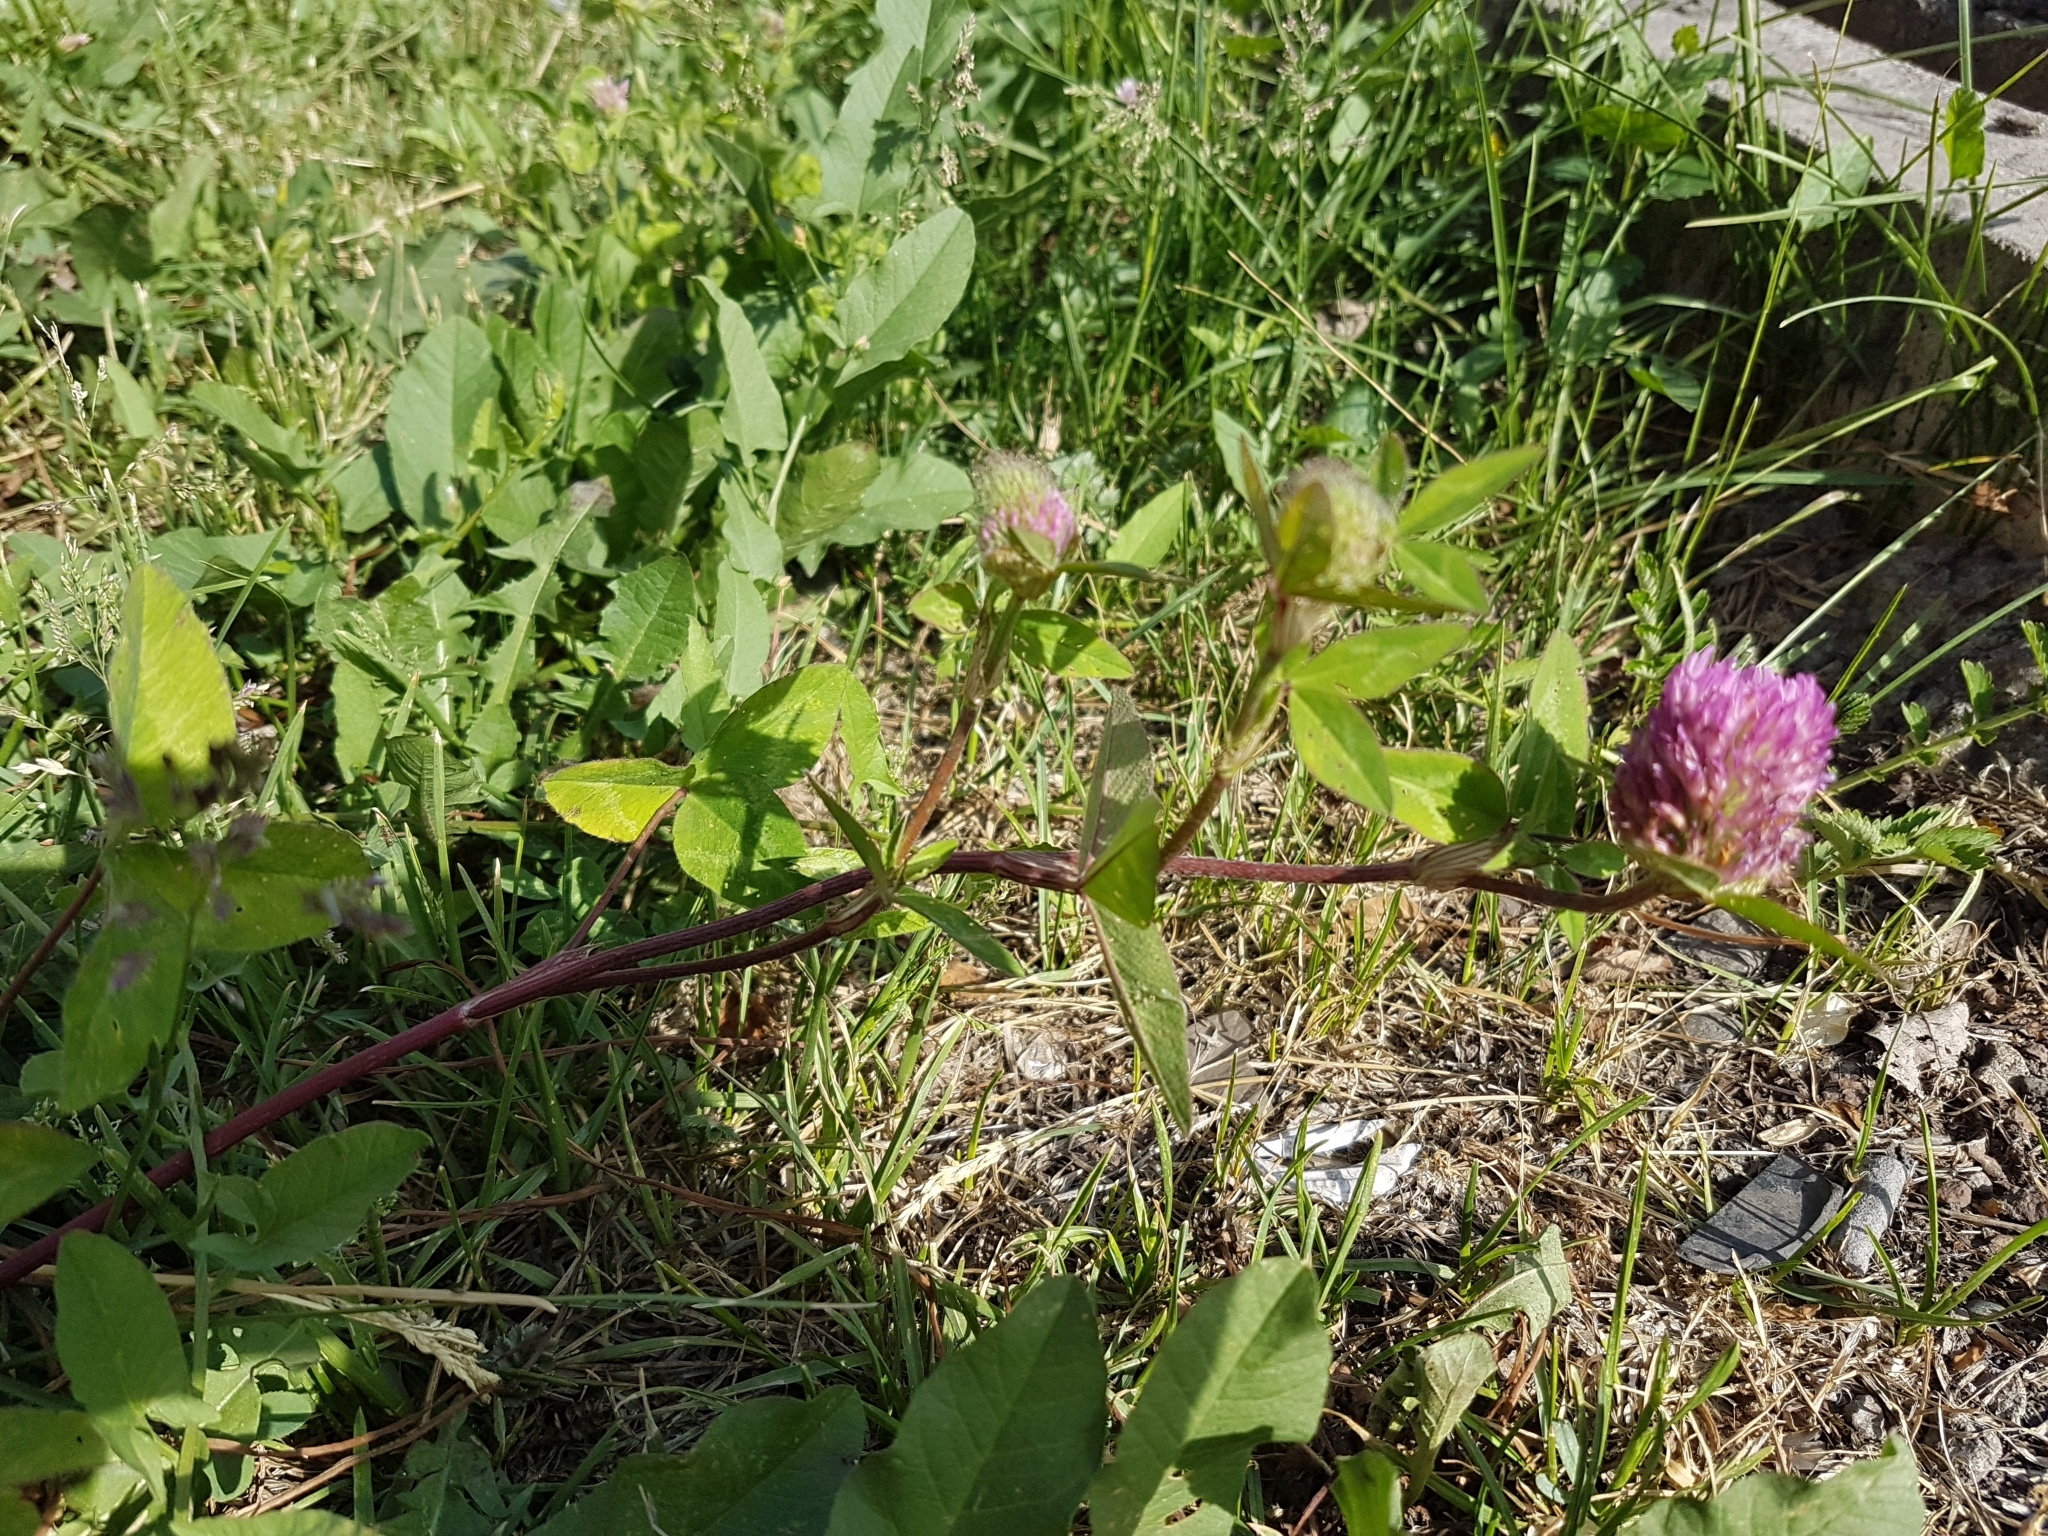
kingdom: Plantae
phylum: Tracheophyta
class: Magnoliopsida
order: Fabales
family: Fabaceae
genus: Trifolium
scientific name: Trifolium pratense
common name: Red clover
